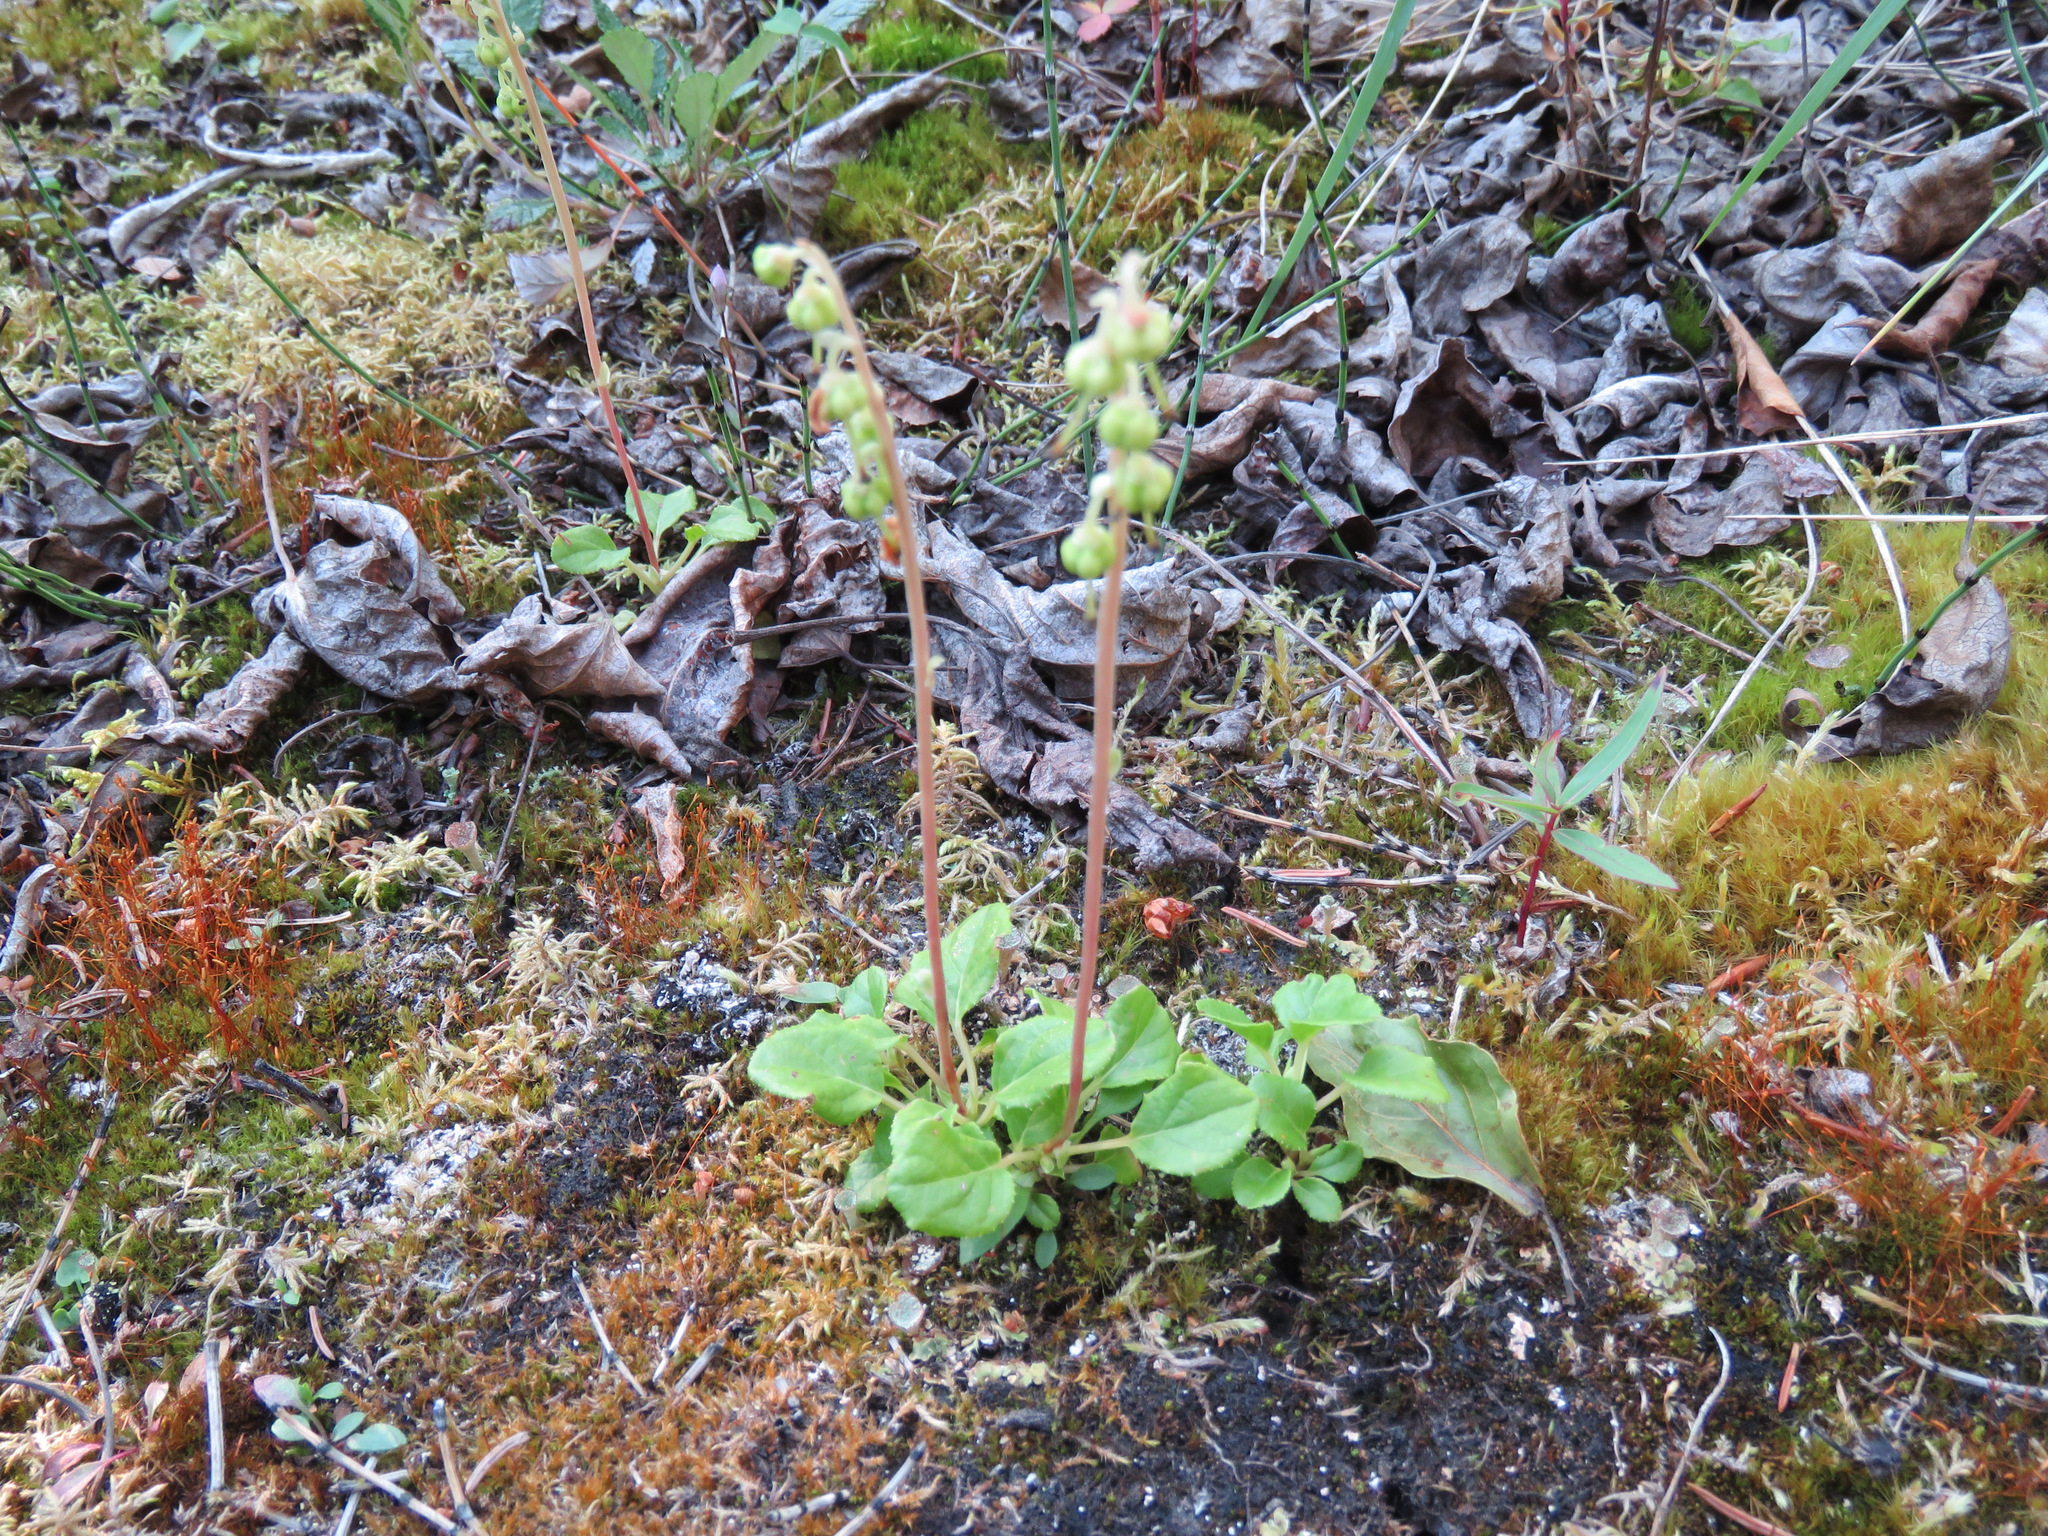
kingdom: Plantae
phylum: Tracheophyta
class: Magnoliopsida
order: Ericales
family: Ericaceae
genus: Orthilia
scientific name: Orthilia secunda
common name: One-sided orthilia
